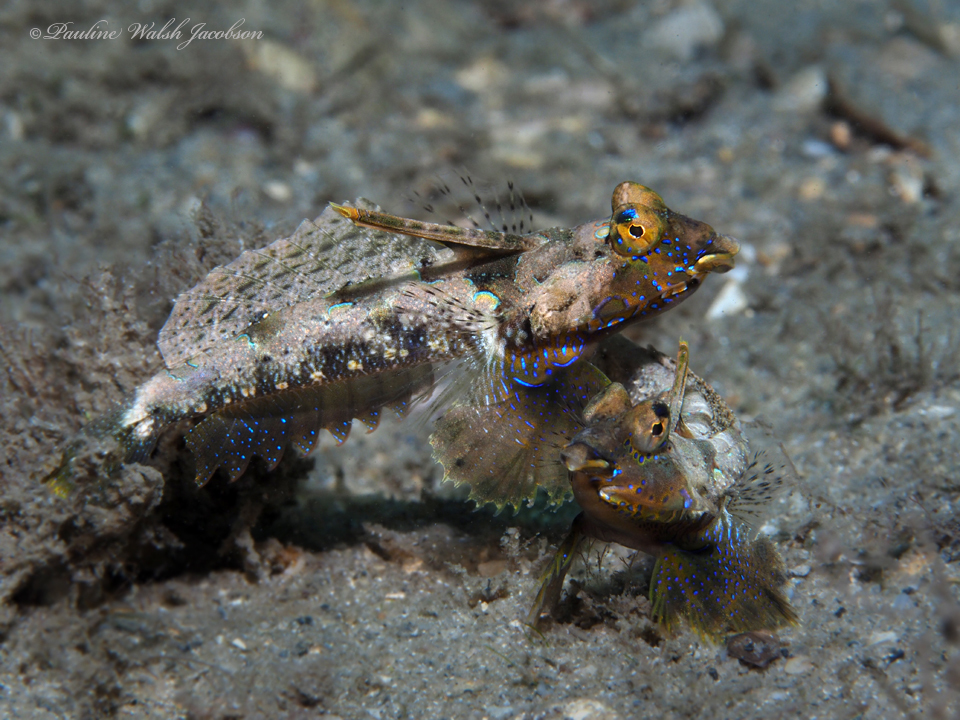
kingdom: Animalia
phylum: Chordata
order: Perciformes
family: Callionymidae
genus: Callionymus
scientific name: Callionymus bairdi
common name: Lancer dragonet
